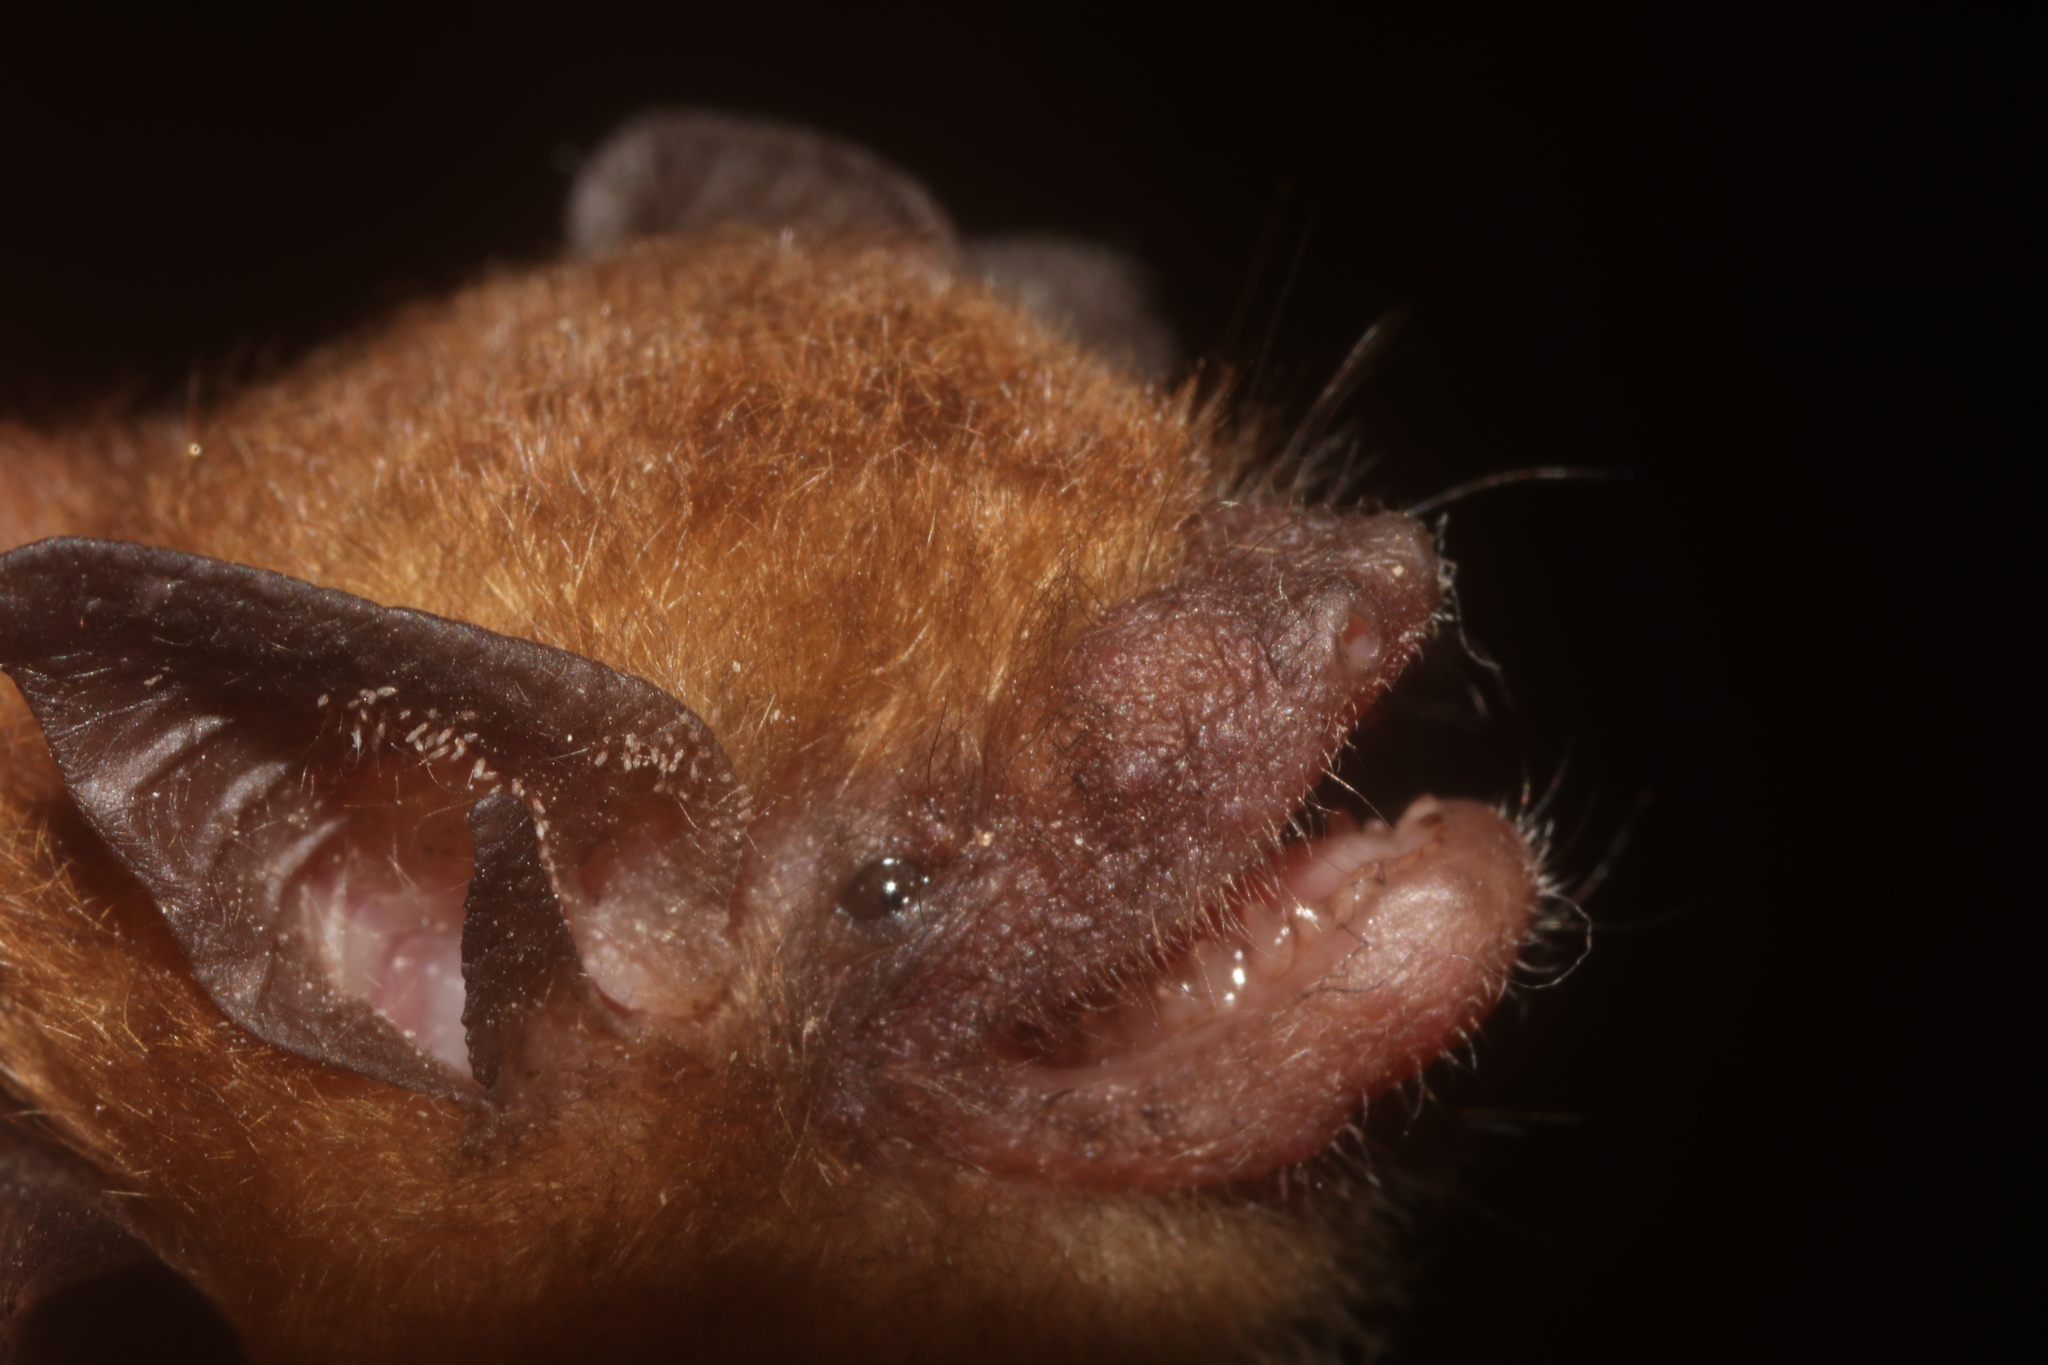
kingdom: Animalia
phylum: Chordata
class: Mammalia
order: Chiroptera
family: Vespertilionidae
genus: Rhogeessa
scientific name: Rhogeessa aenea
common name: Yucatan yellow bat
